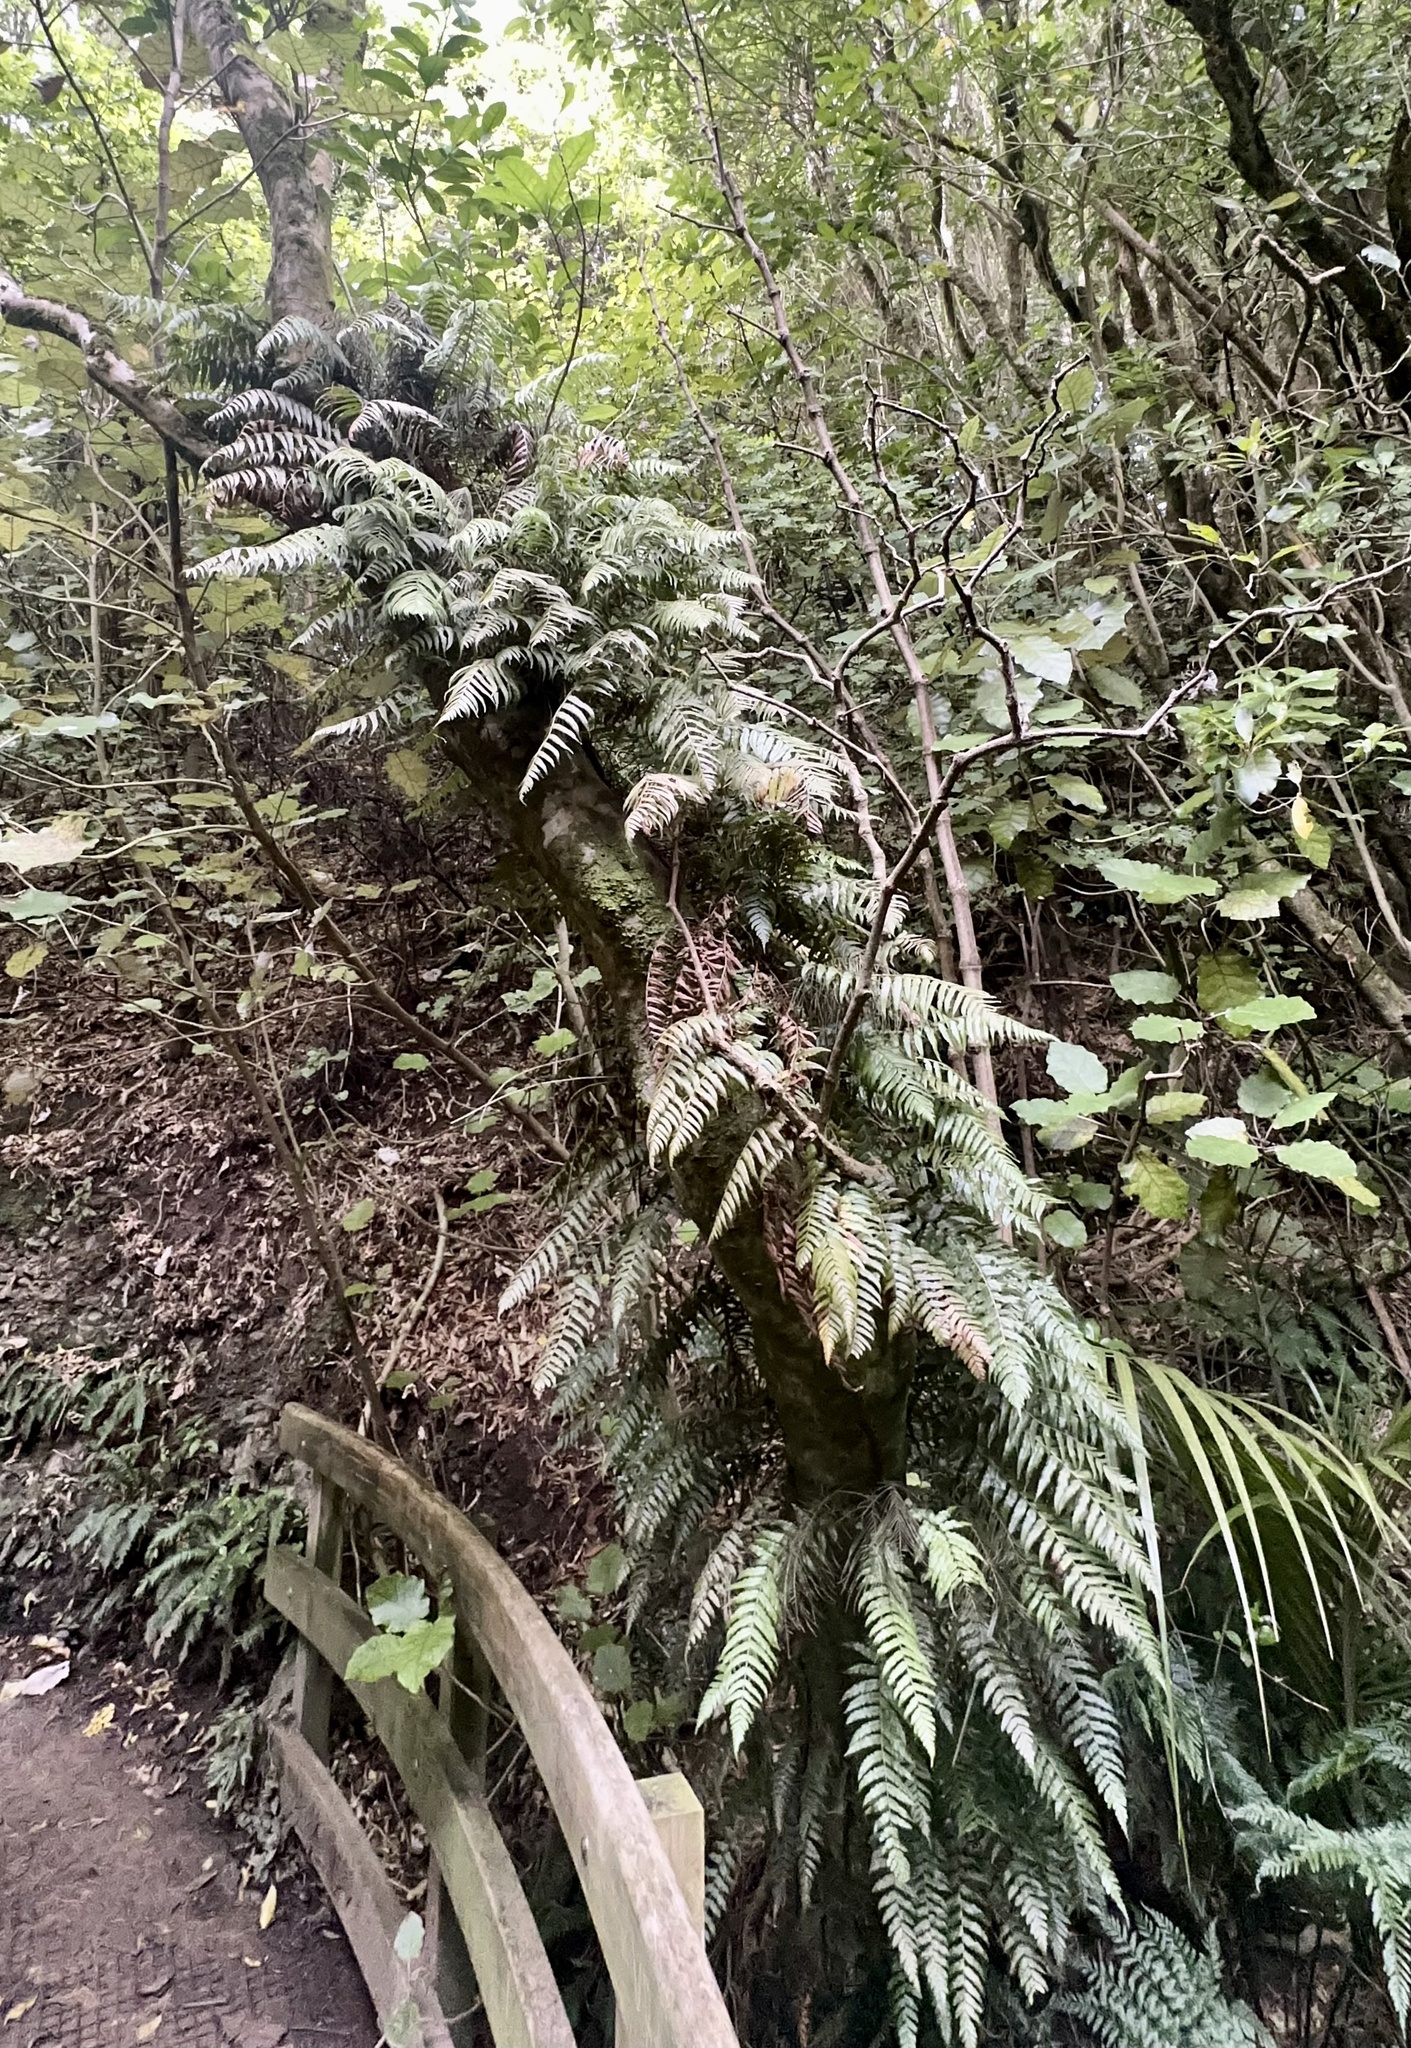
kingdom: Plantae
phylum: Tracheophyta
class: Polypodiopsida
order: Polypodiales
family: Blechnaceae
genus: Icarus
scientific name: Icarus filiformis
